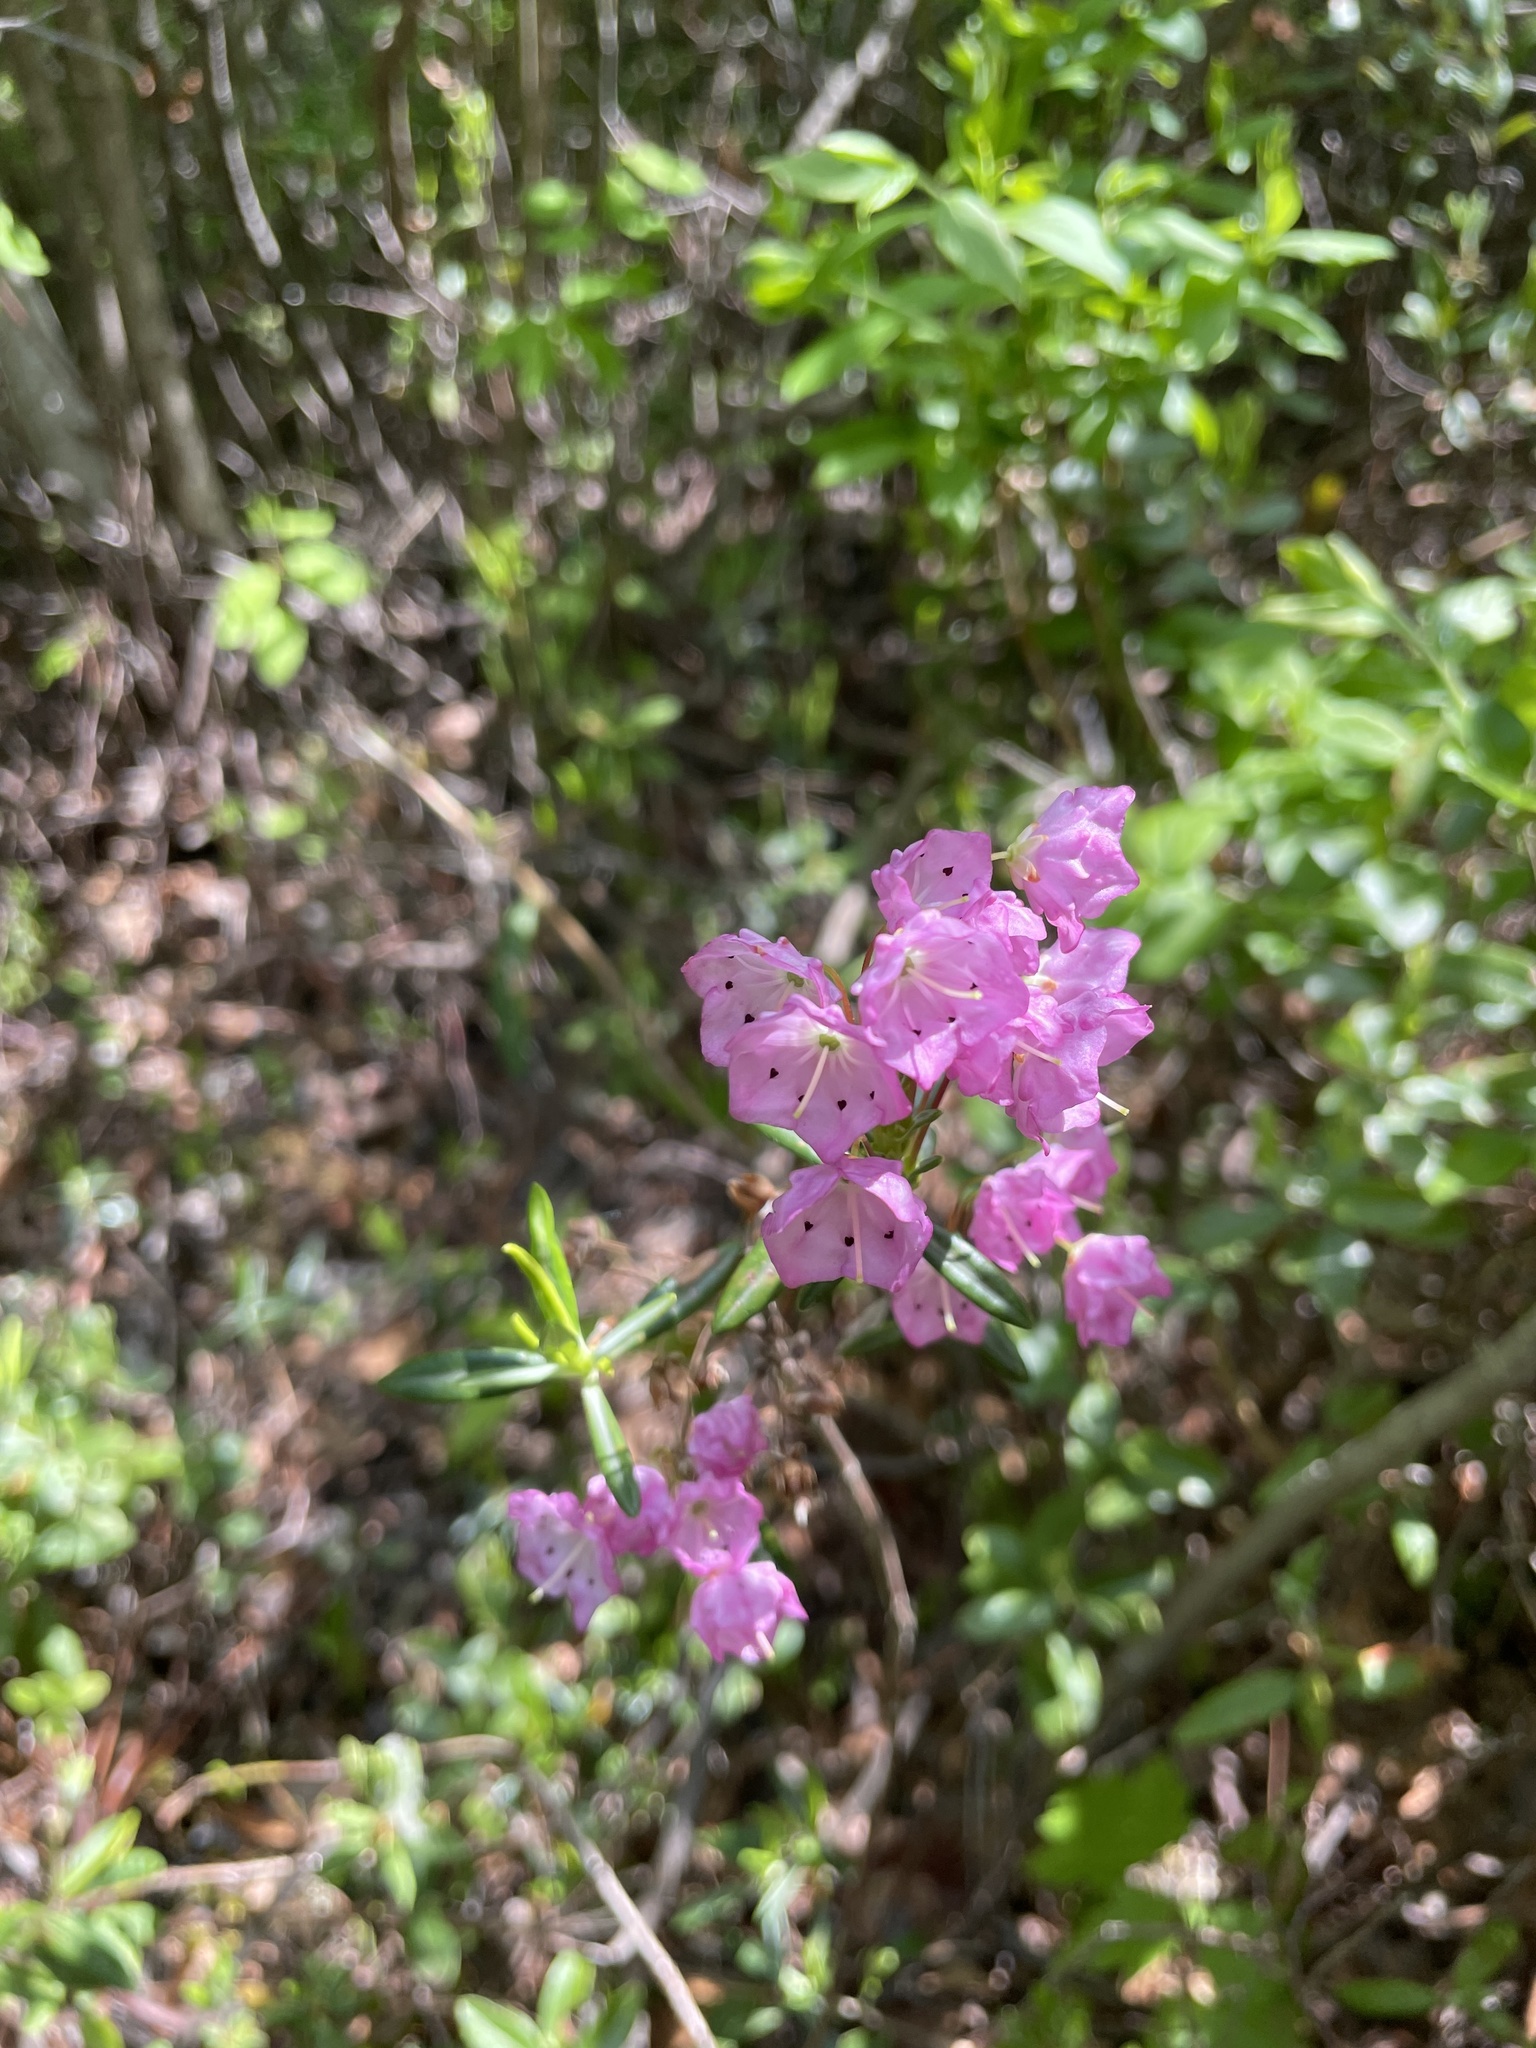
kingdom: Plantae
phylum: Tracheophyta
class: Magnoliopsida
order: Ericales
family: Ericaceae
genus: Kalmia
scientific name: Kalmia polifolia
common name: Bog-laurel
